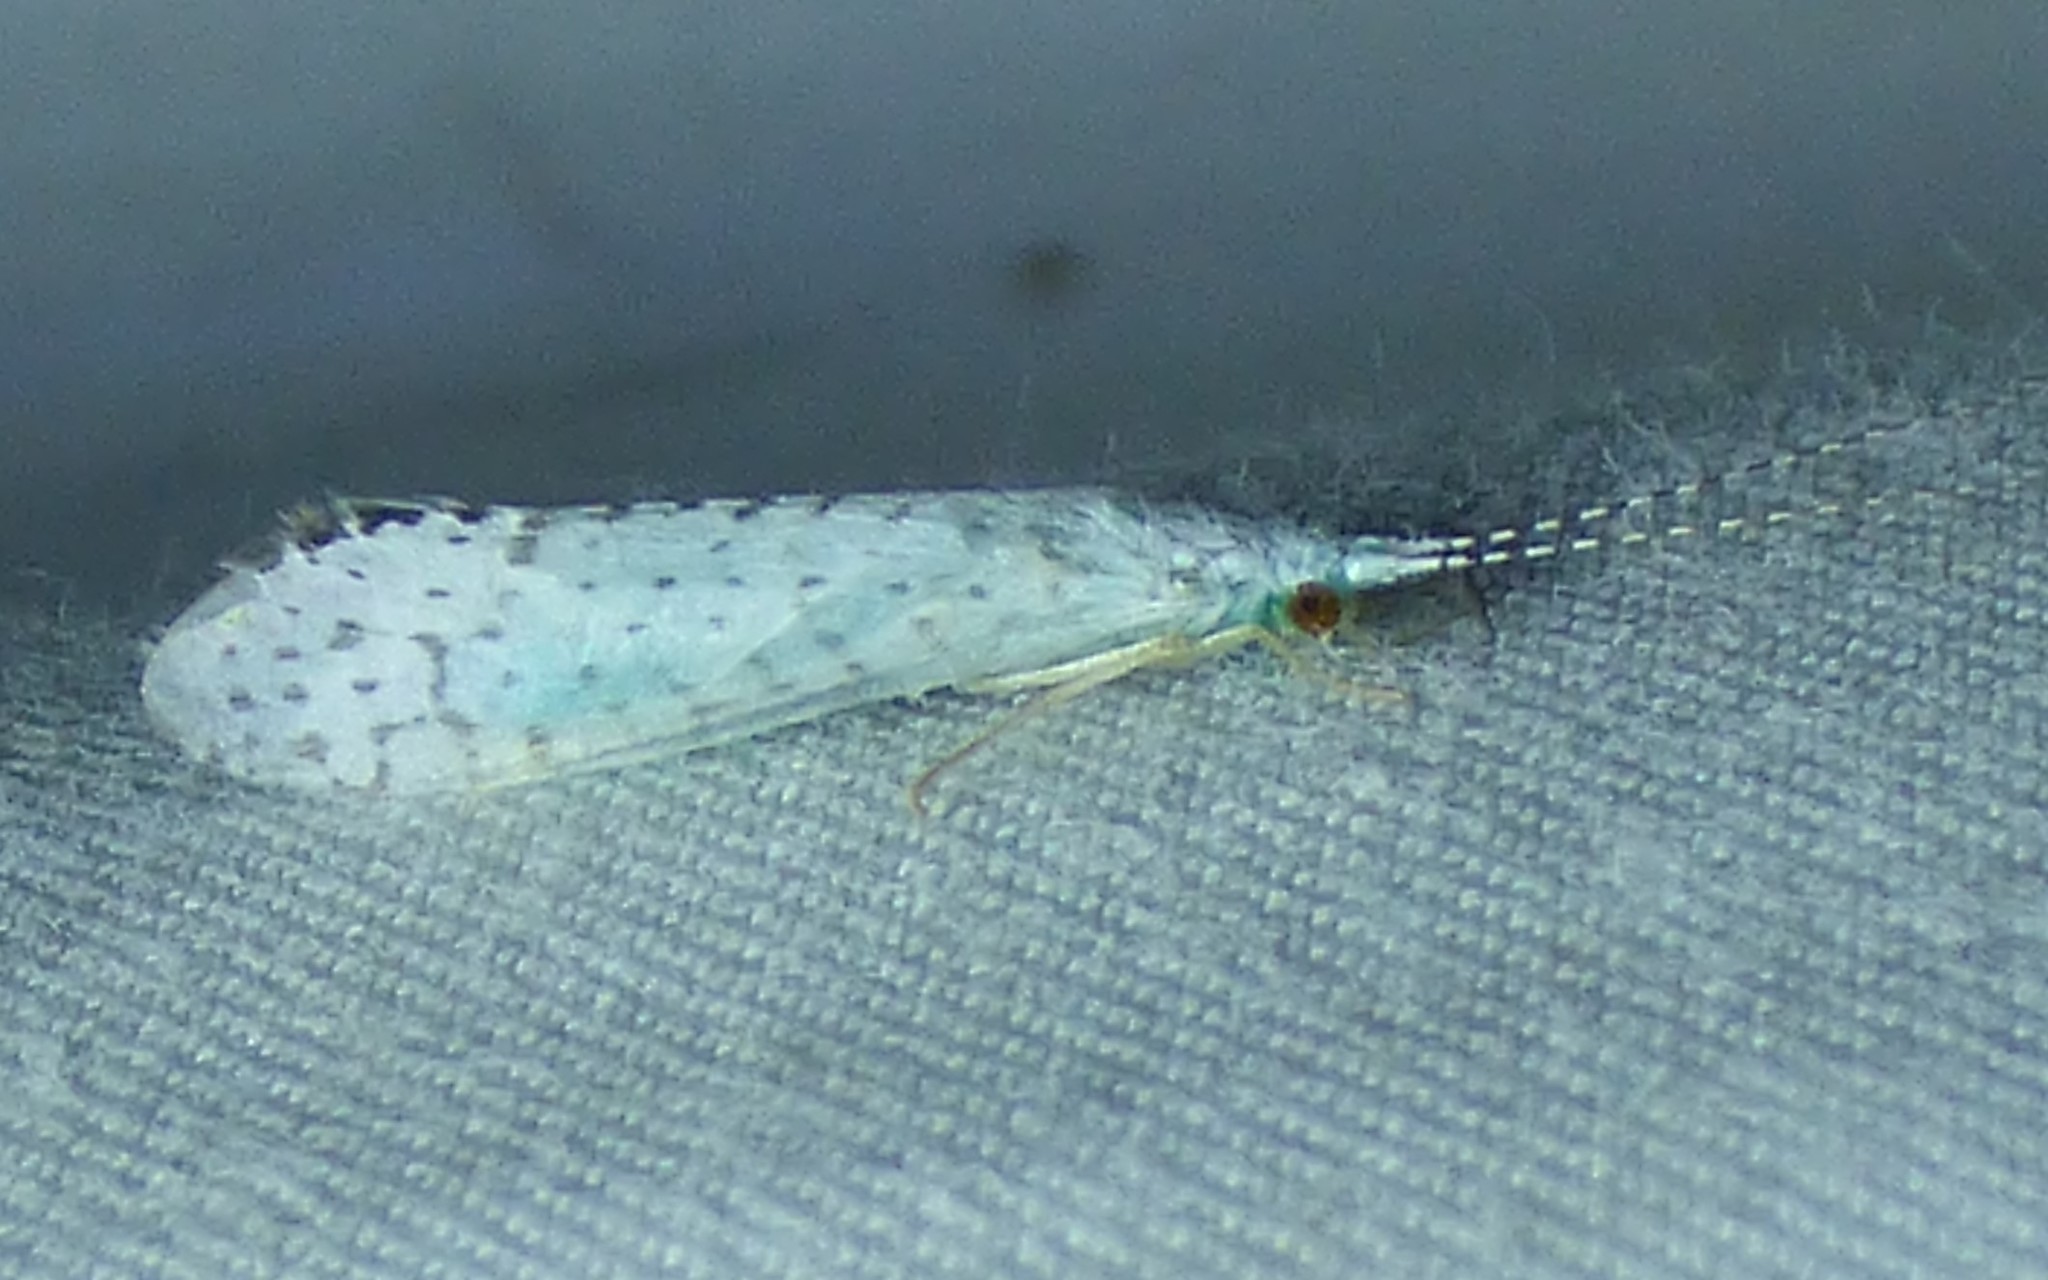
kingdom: Animalia
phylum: Arthropoda
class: Insecta
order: Trichoptera
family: Leptoceridae
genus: Nectopsyche
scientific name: Nectopsyche candida
